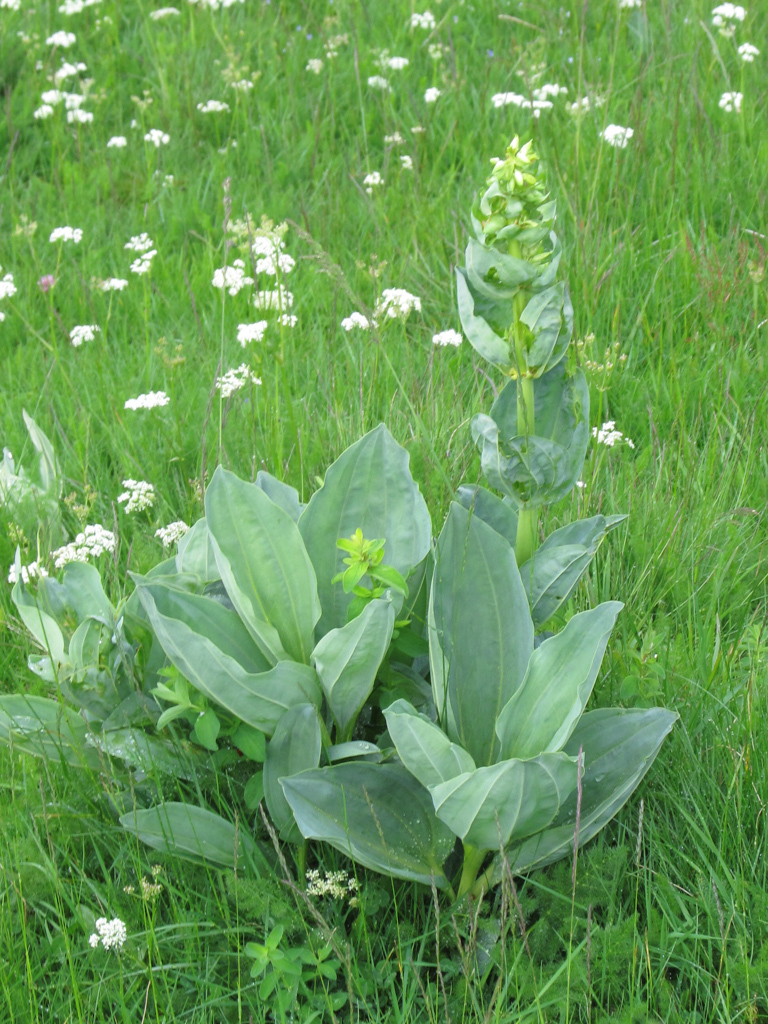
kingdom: Plantae
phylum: Tracheophyta
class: Magnoliopsida
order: Gentianales
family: Gentianaceae
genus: Gentiana
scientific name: Gentiana lutea
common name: Great yellow gentian
